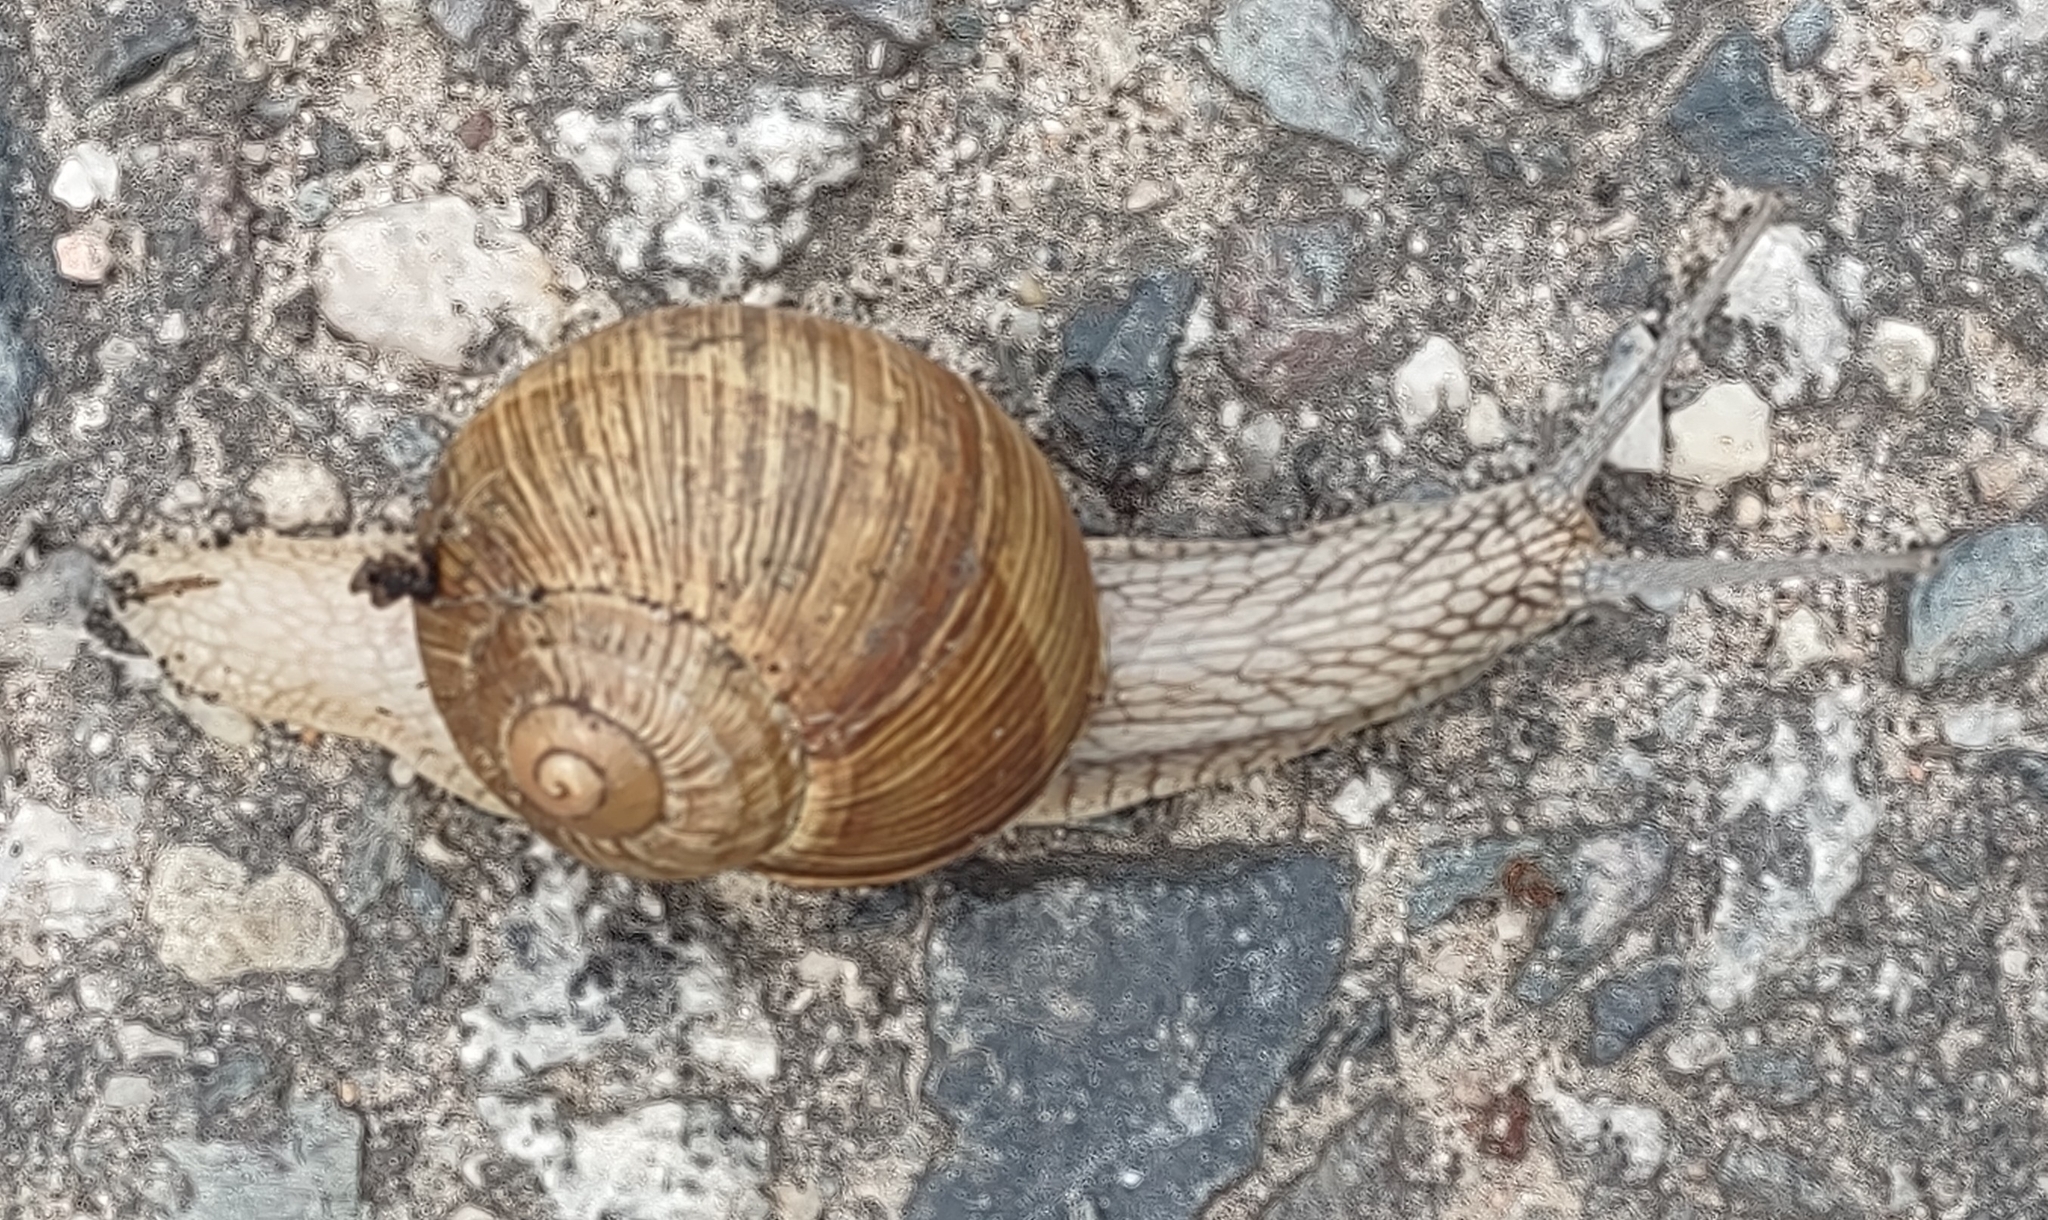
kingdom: Animalia
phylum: Mollusca
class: Gastropoda
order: Stylommatophora
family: Helicidae
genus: Helix
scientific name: Helix pomatia
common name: Roman snail
